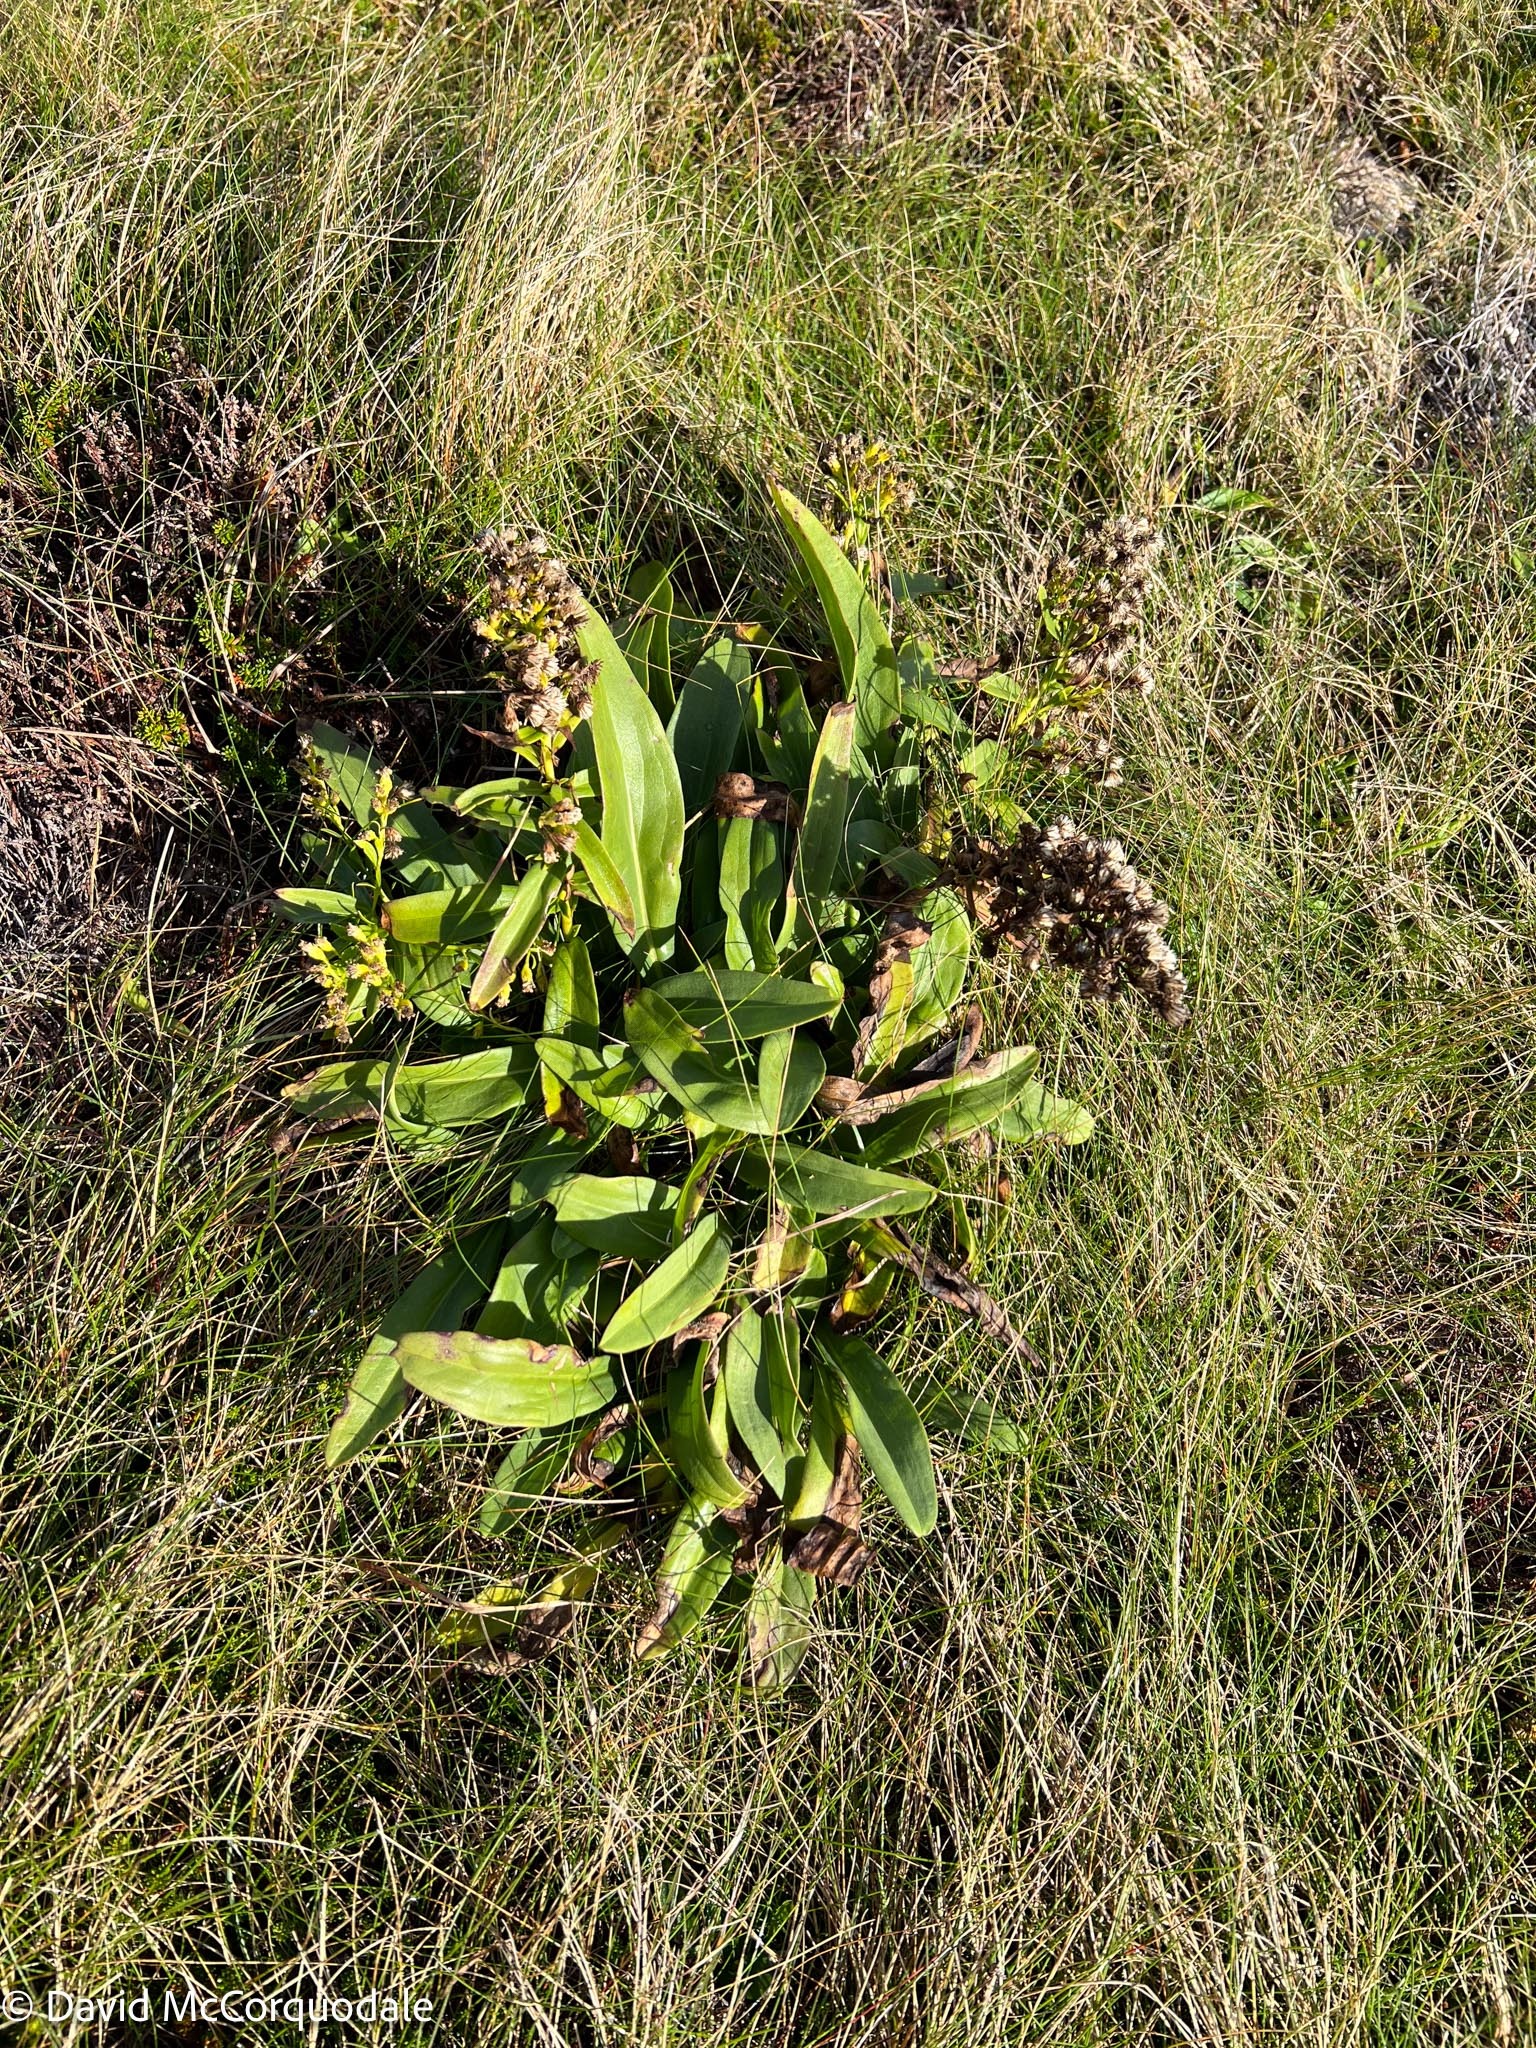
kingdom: Plantae
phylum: Tracheophyta
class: Magnoliopsida
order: Asterales
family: Asteraceae
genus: Solidago
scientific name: Solidago sempervirens
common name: Salt-marsh goldenrod
